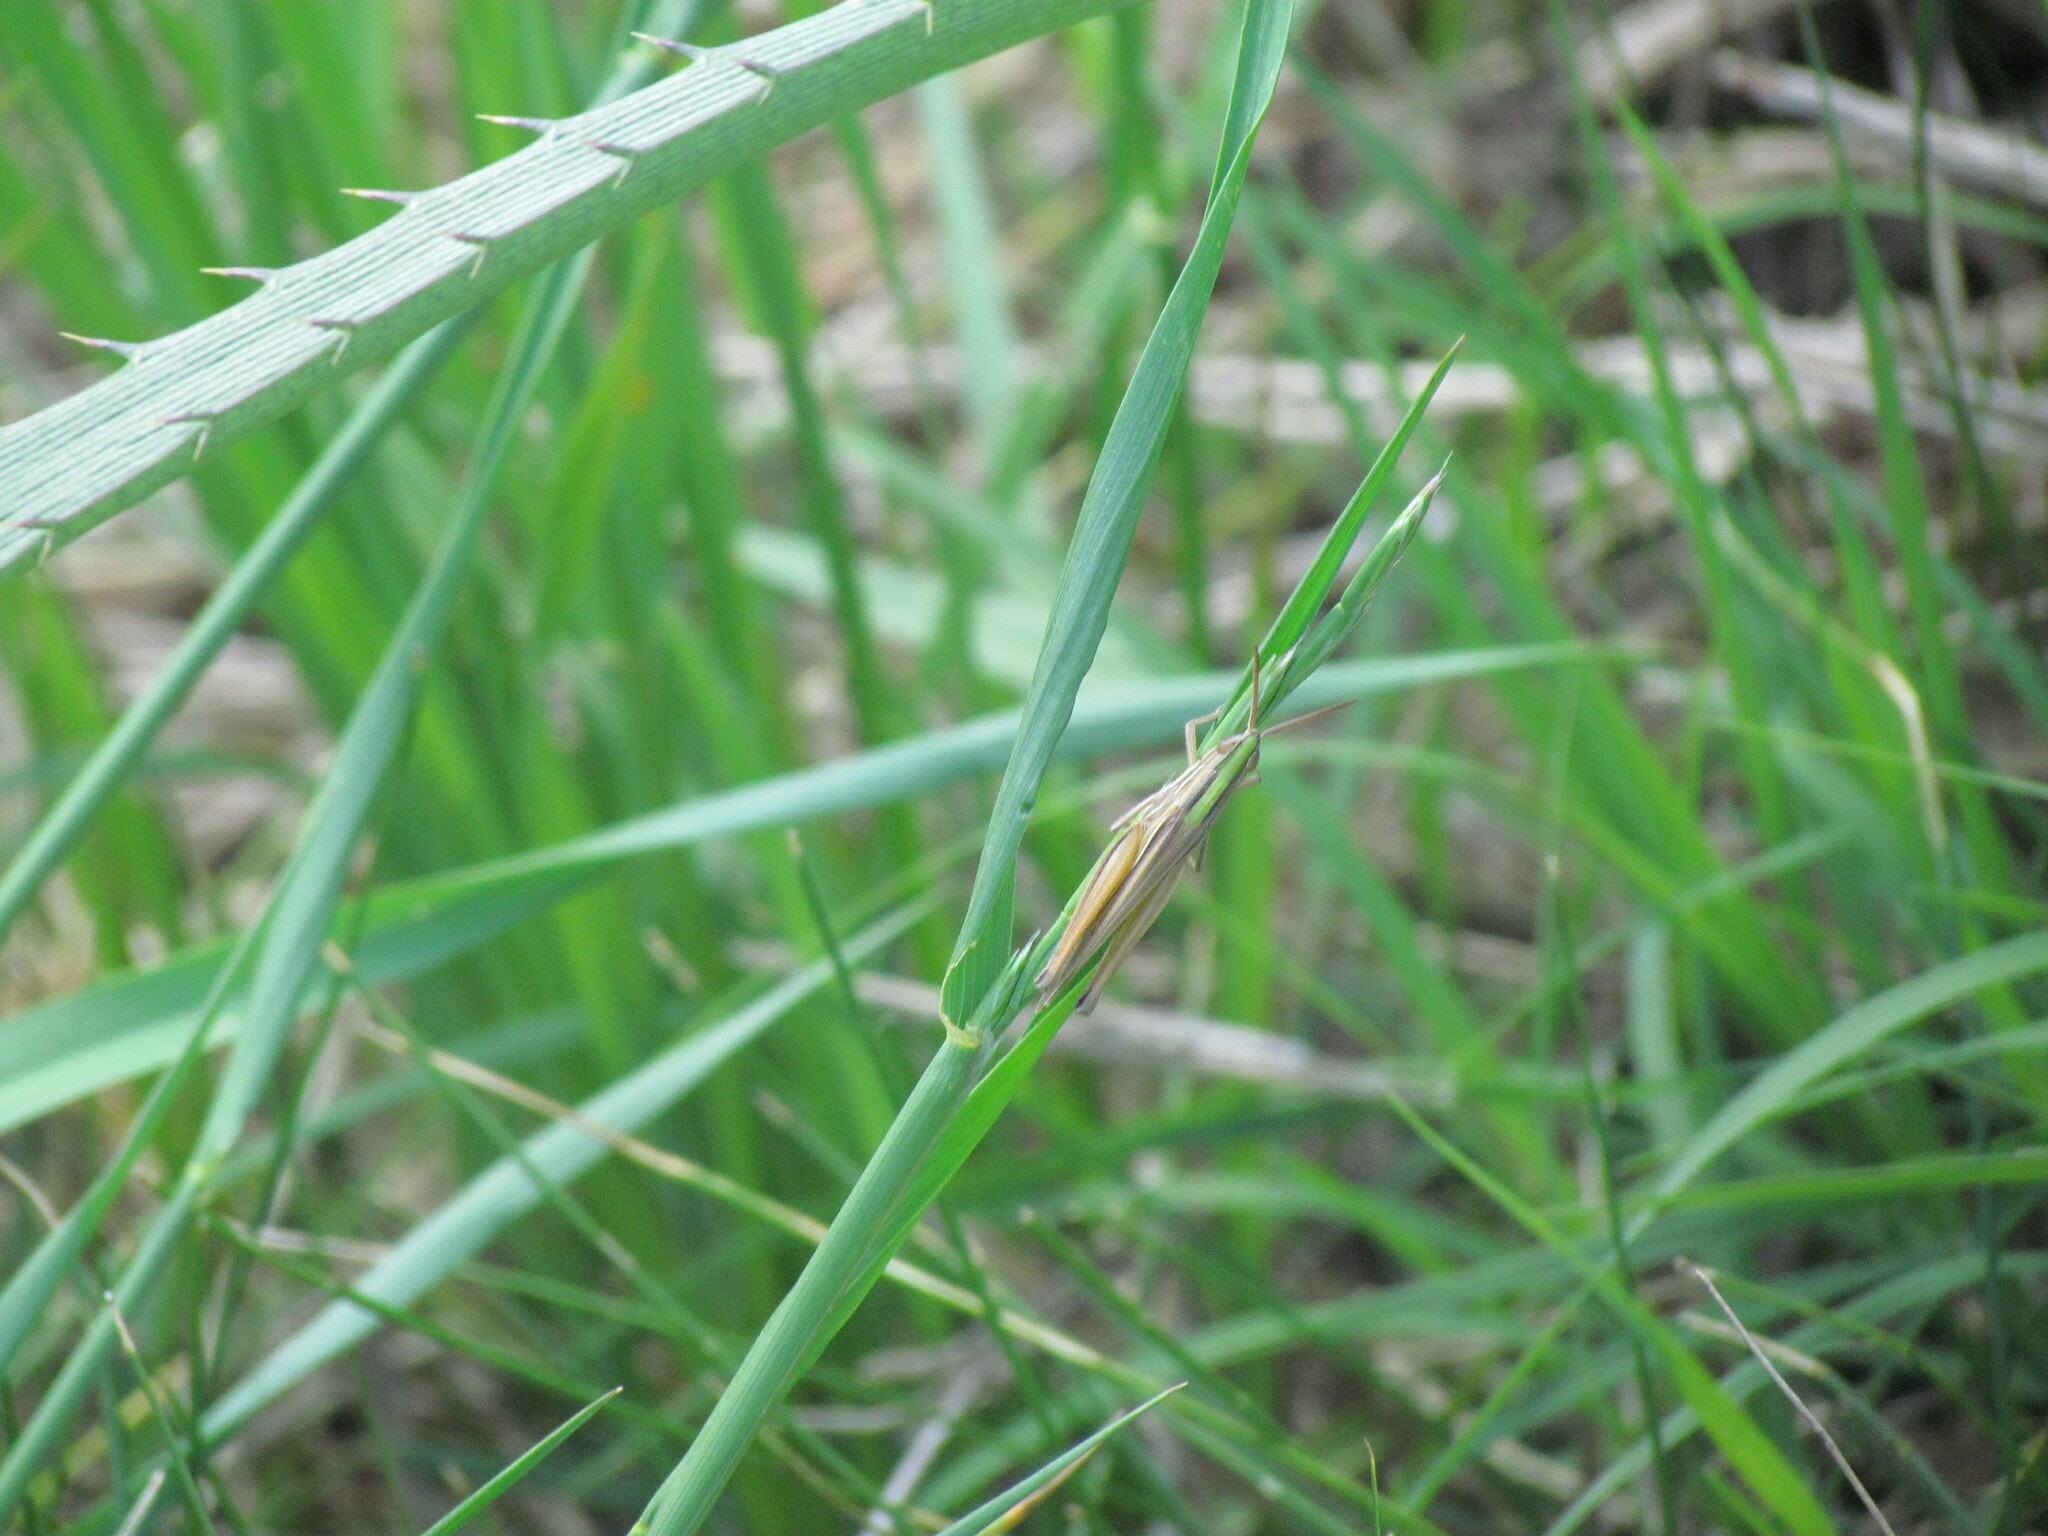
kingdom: Animalia
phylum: Arthropoda
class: Insecta
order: Orthoptera
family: Acrididae
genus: Sinipta
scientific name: Sinipta dalmani
